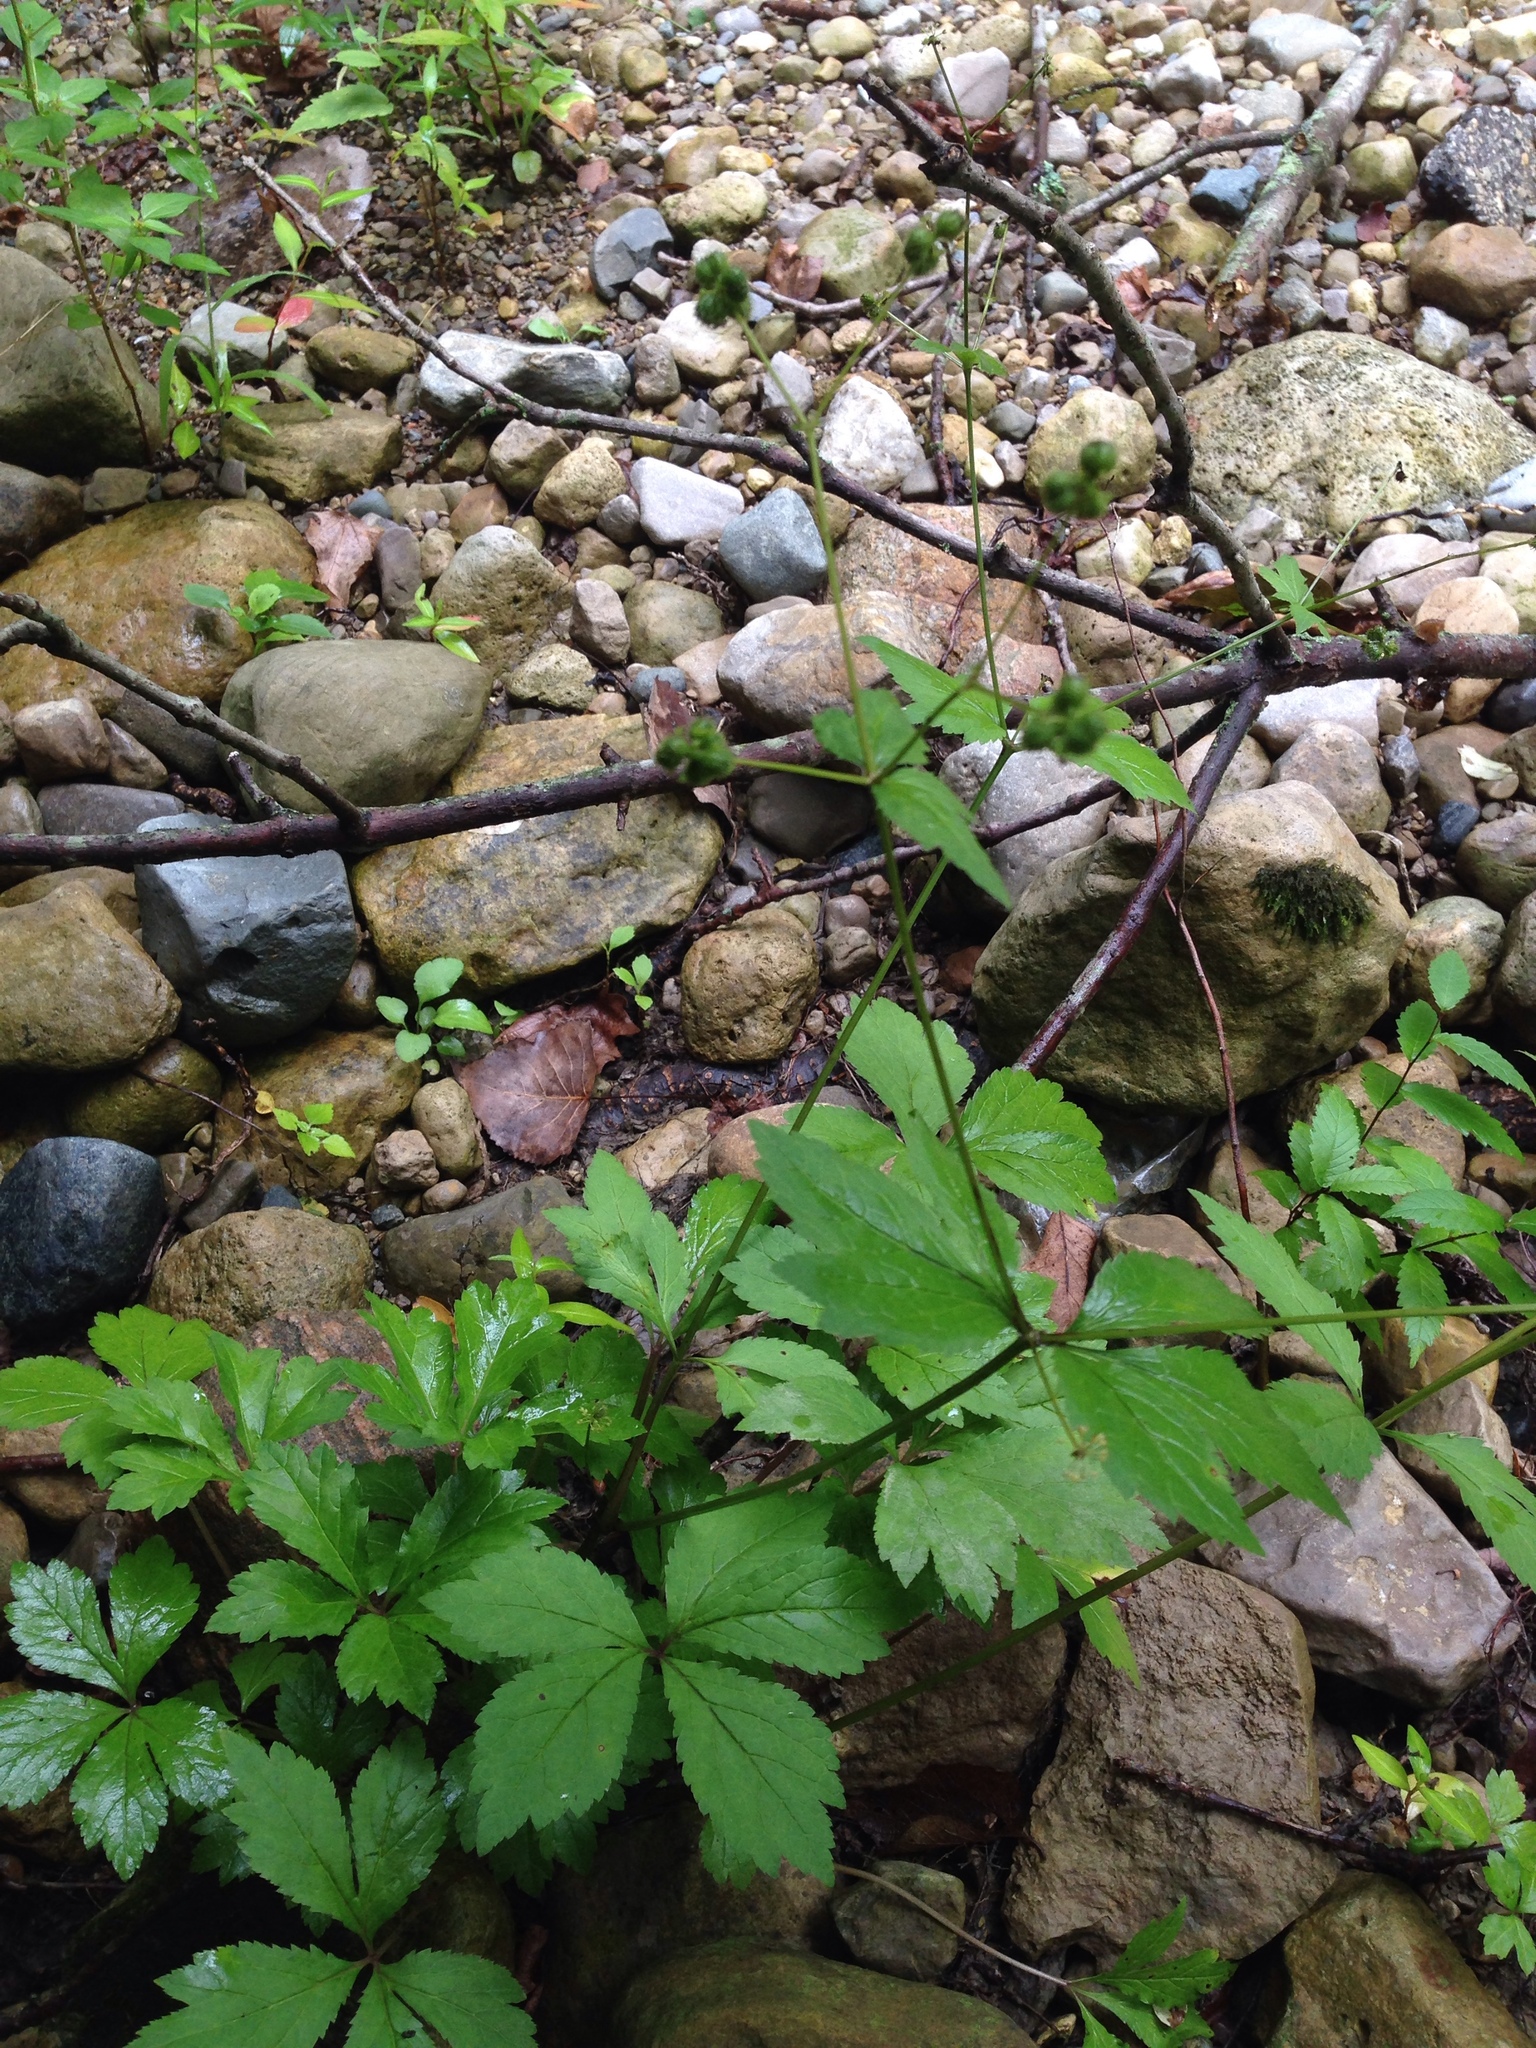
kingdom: Plantae
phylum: Tracheophyta
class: Magnoliopsida
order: Apiales
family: Apiaceae
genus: Sanicula
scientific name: Sanicula canadensis
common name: Canada sanicle
